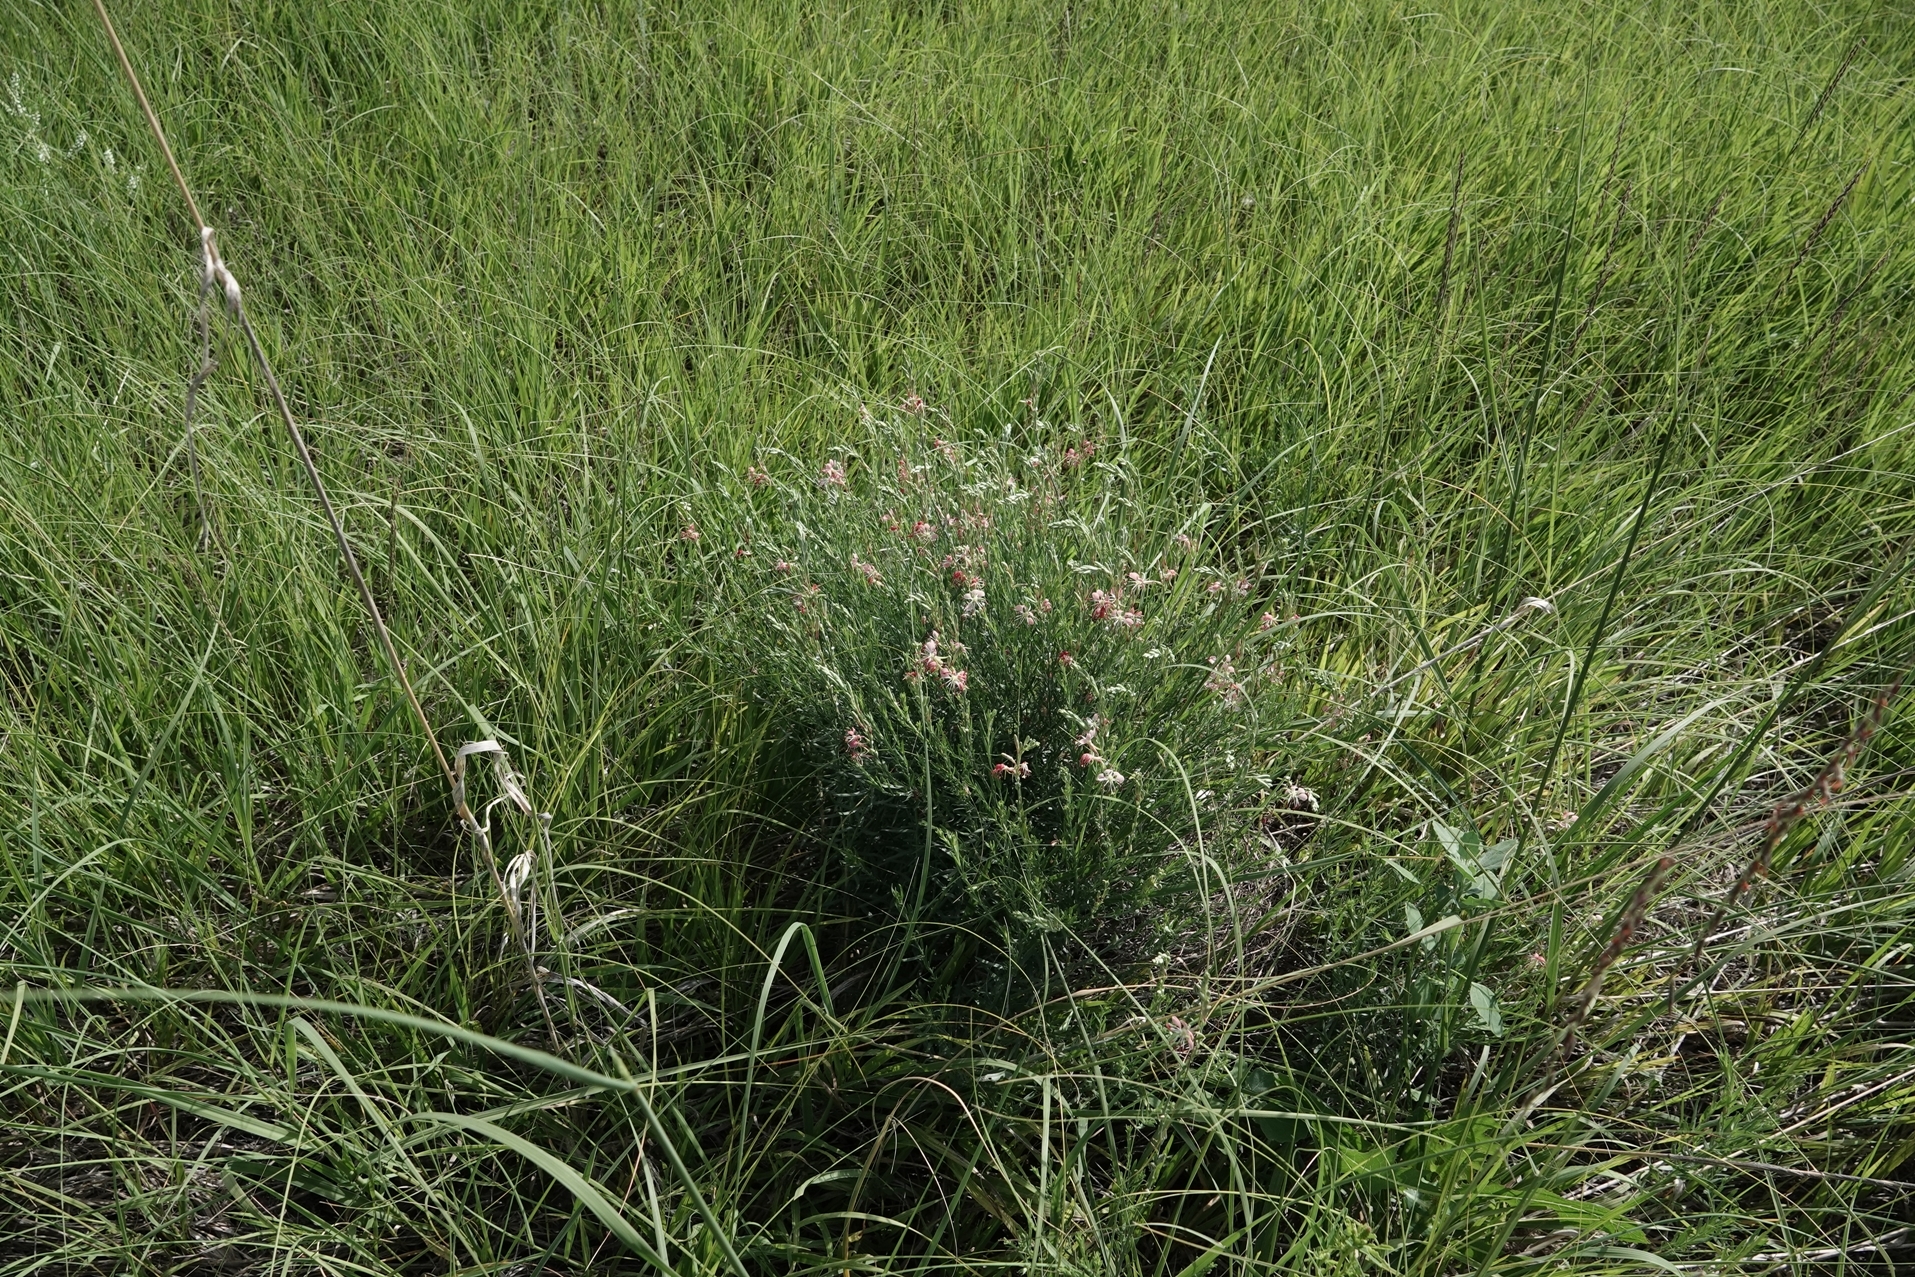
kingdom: Plantae
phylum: Tracheophyta
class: Magnoliopsida
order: Myrtales
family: Onagraceae
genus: Oenothera
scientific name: Oenothera suffrutescens
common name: Scarlet beeblossom
